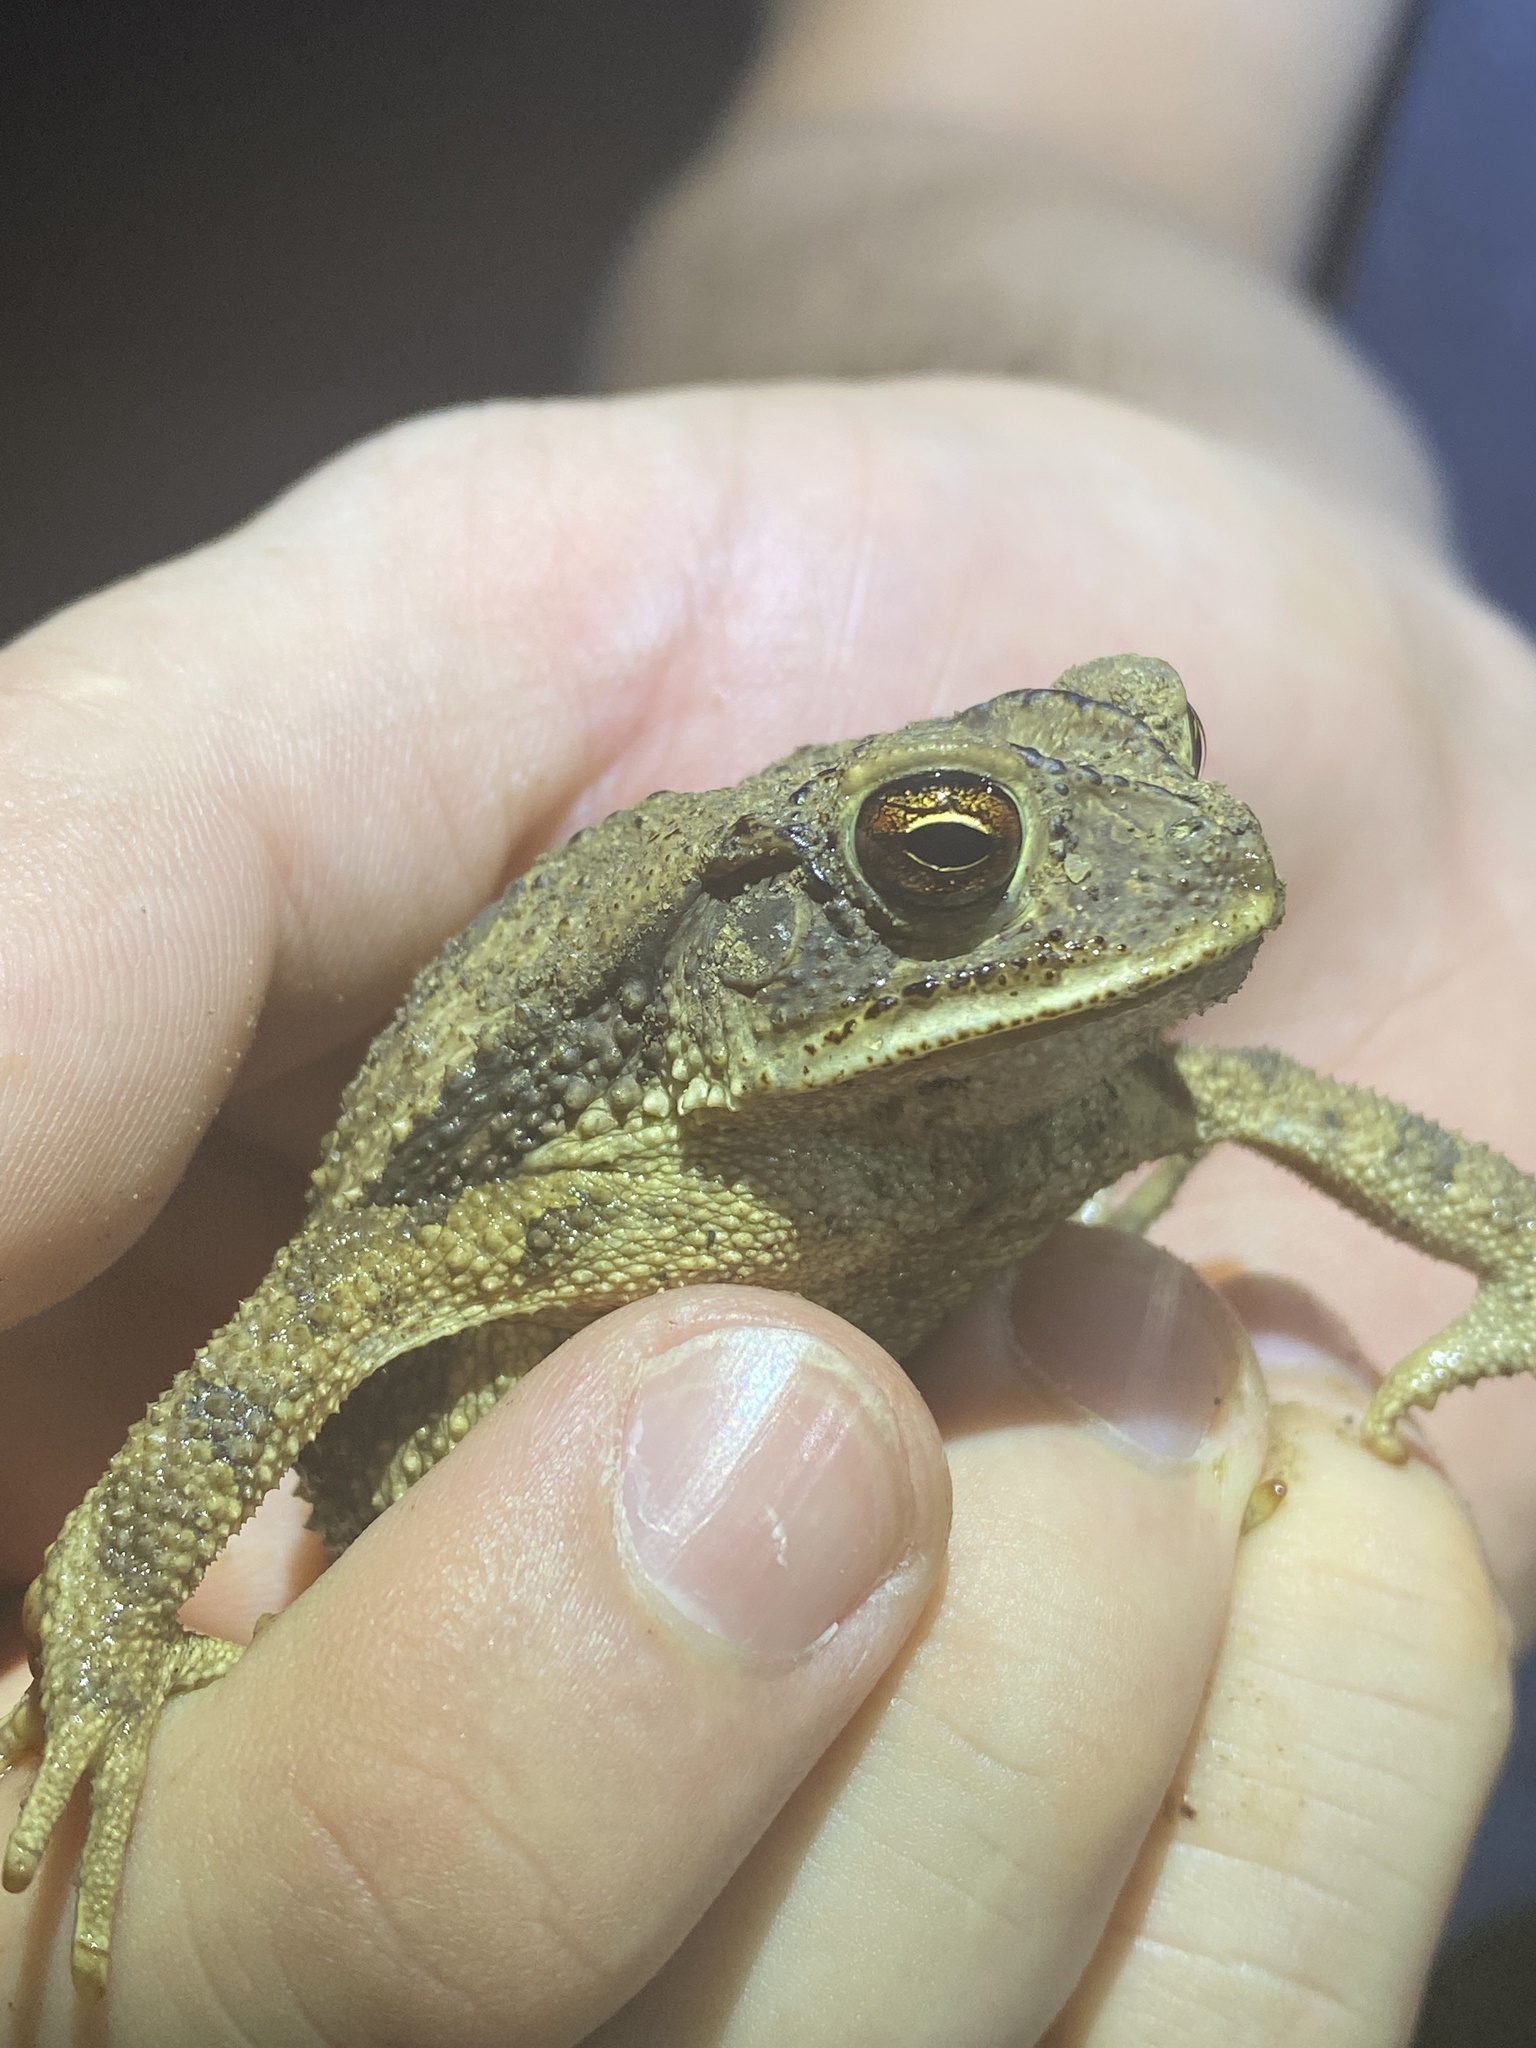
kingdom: Animalia
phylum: Chordata
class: Amphibia
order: Anura
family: Bufonidae
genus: Incilius
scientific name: Incilius nebulifer
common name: Gulf coast toad
